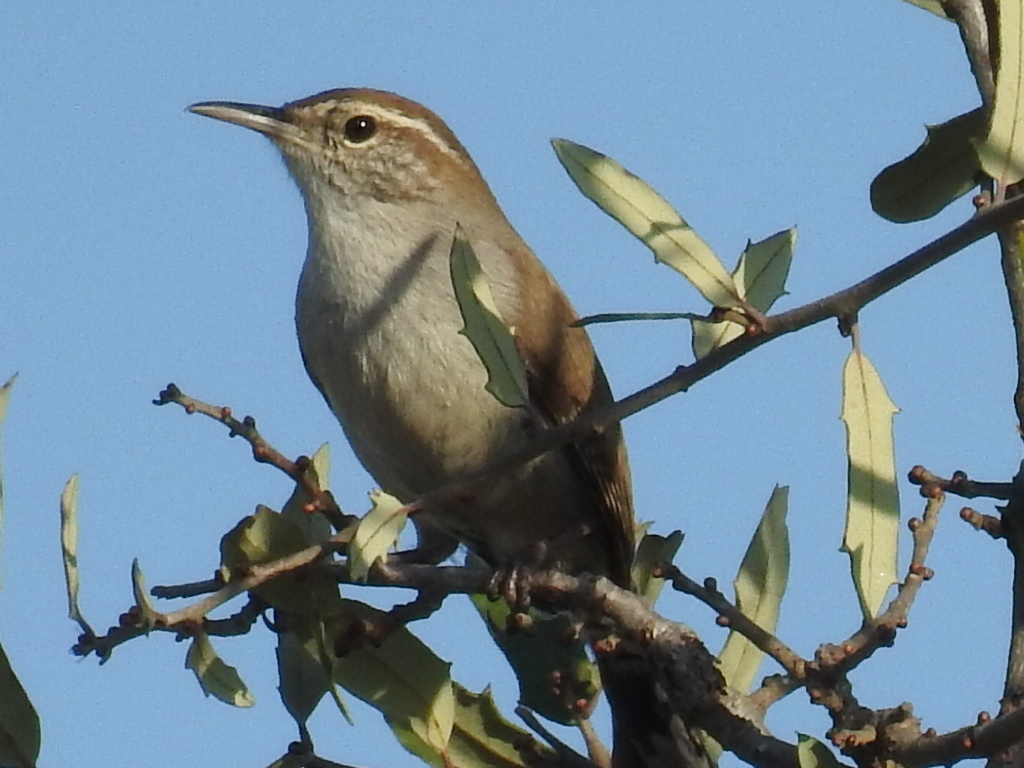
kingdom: Animalia
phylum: Chordata
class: Aves
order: Passeriformes
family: Troglodytidae
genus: Thryomanes
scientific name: Thryomanes bewickii
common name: Bewick's wren
